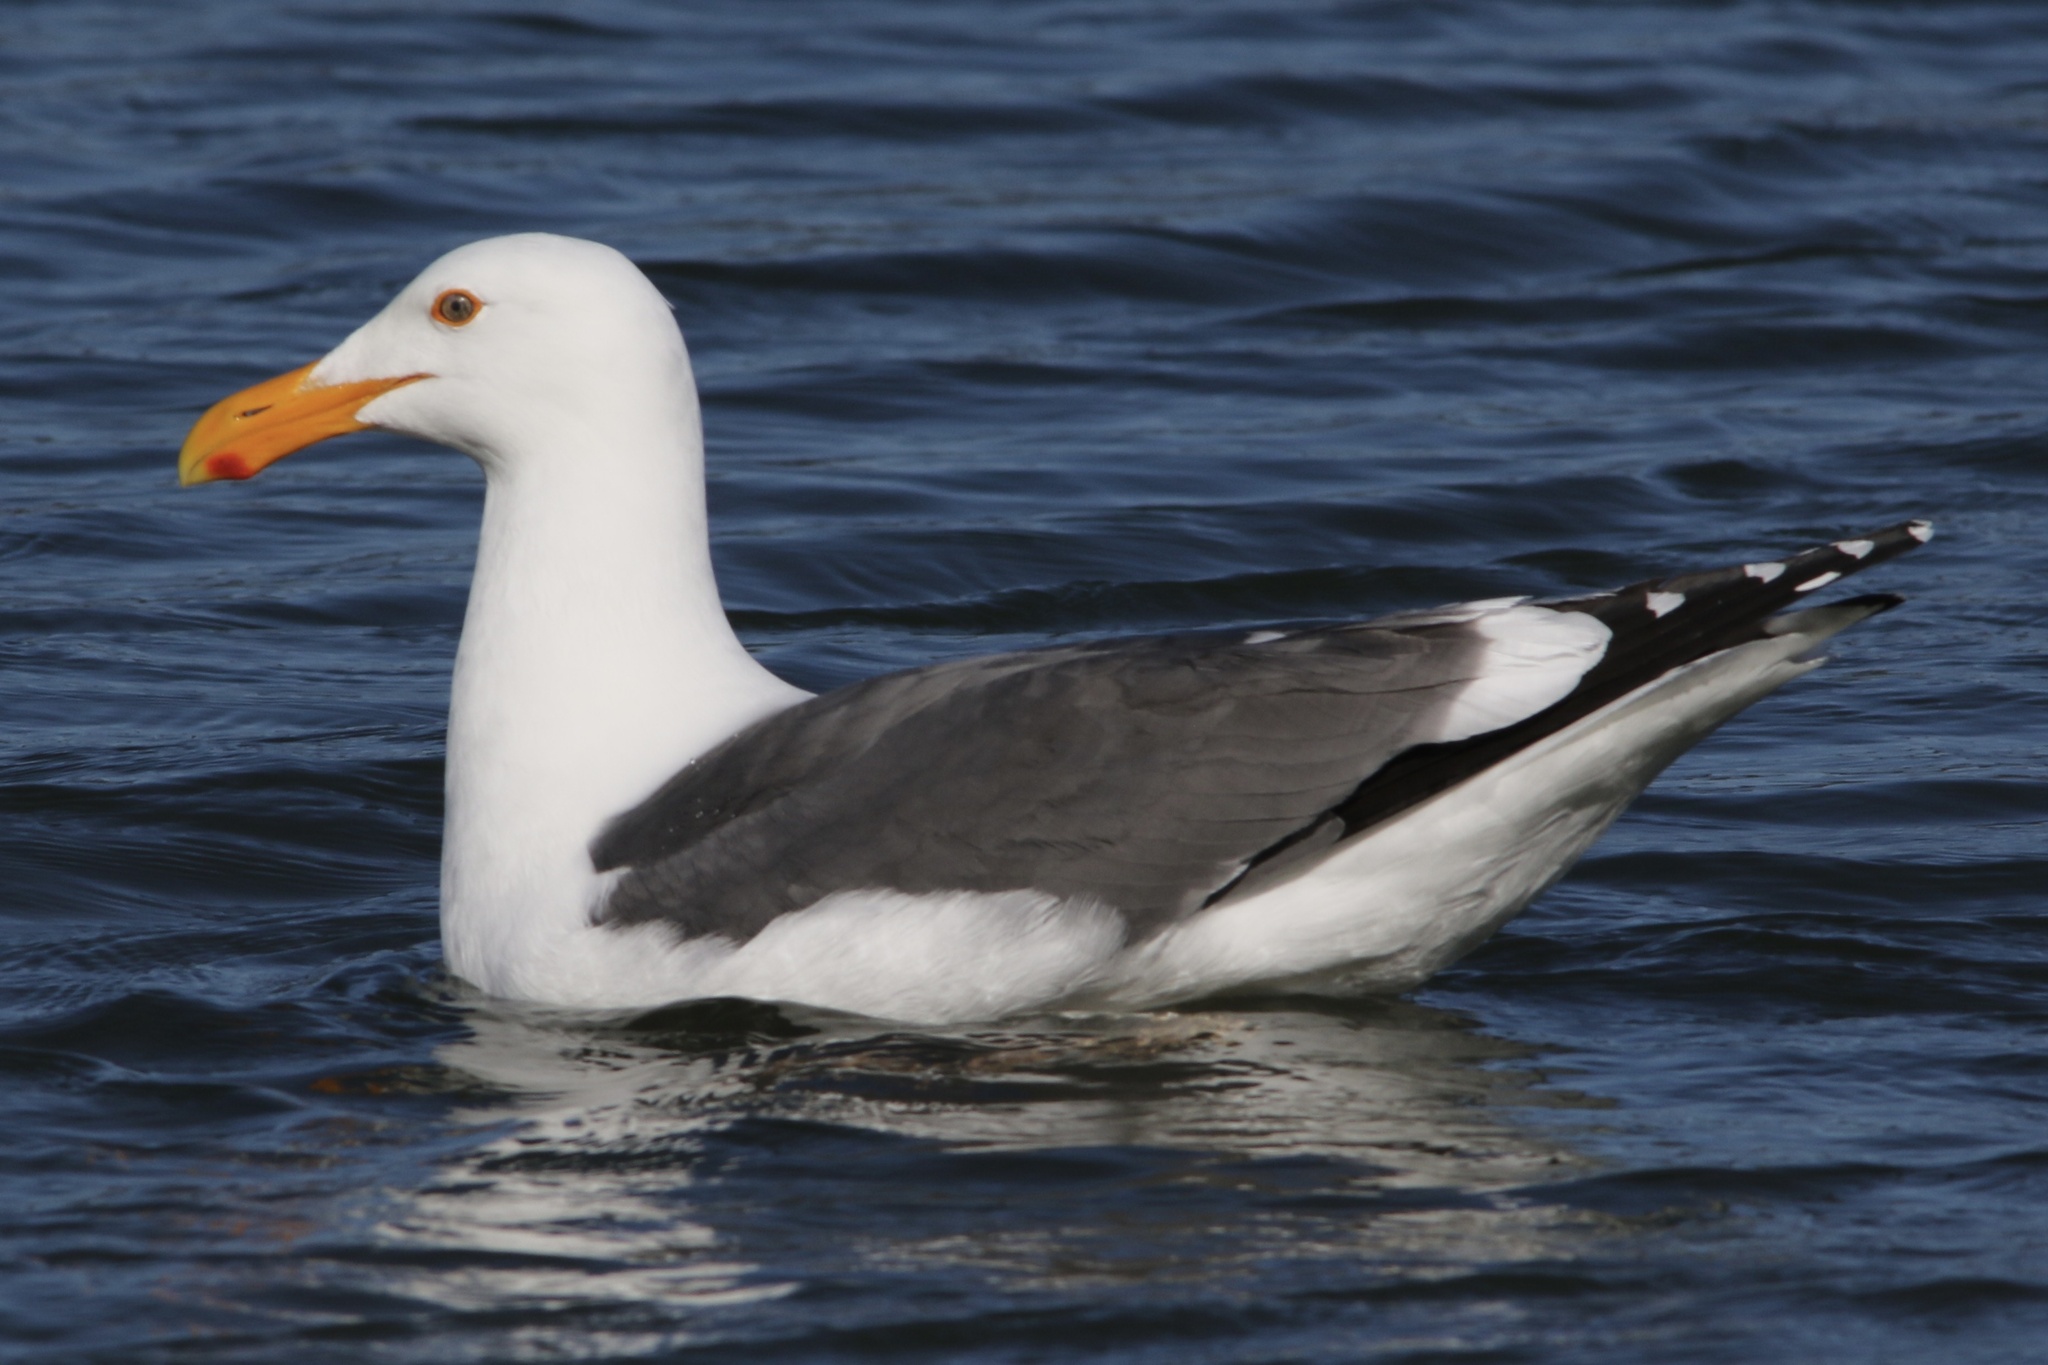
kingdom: Animalia
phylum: Chordata
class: Aves
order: Charadriiformes
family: Laridae
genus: Larus
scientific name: Larus occidentalis
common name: Western gull
